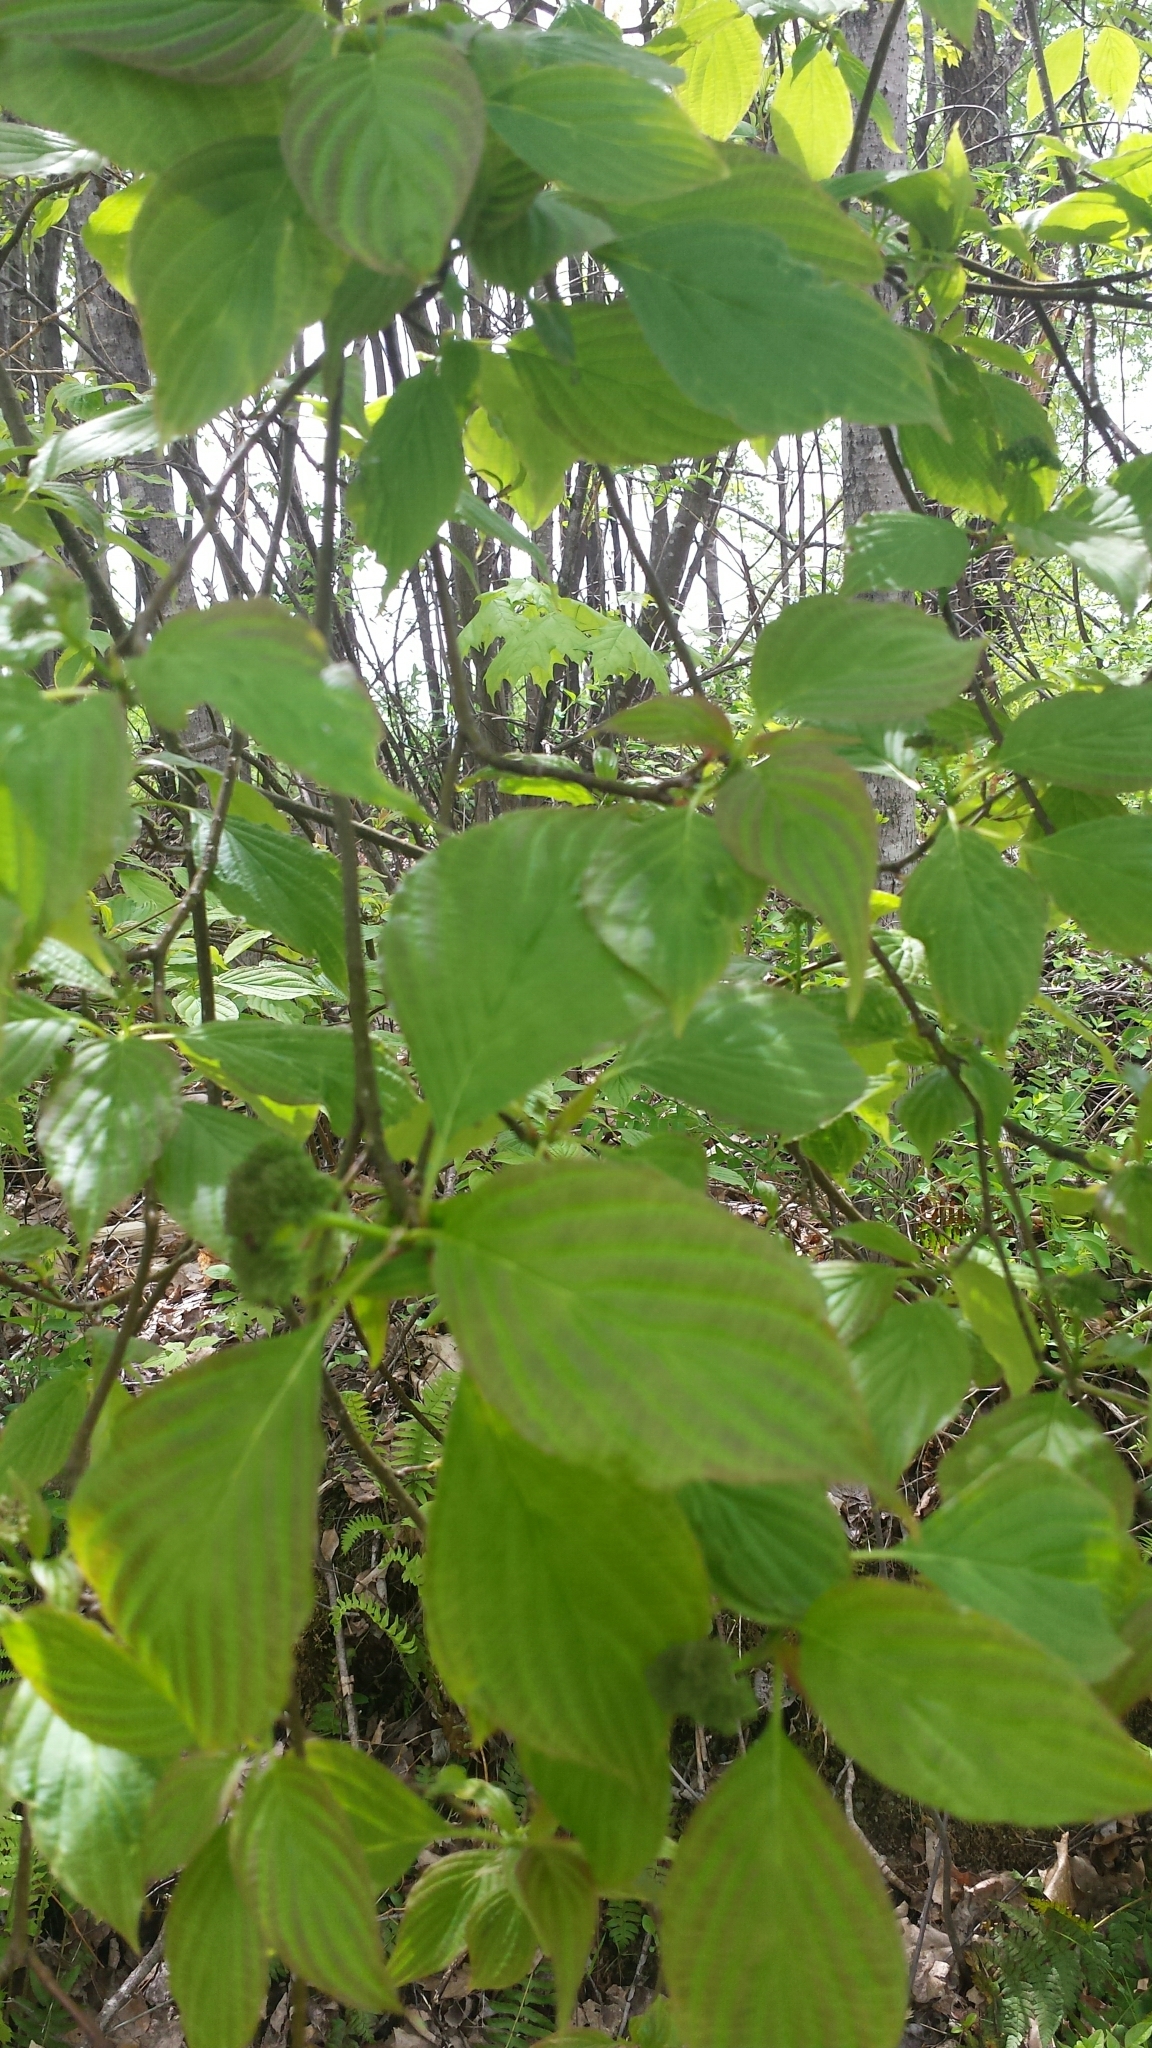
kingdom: Plantae
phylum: Tracheophyta
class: Magnoliopsida
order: Cornales
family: Cornaceae
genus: Cornus
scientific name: Cornus alternifolia
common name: Pagoda dogwood
